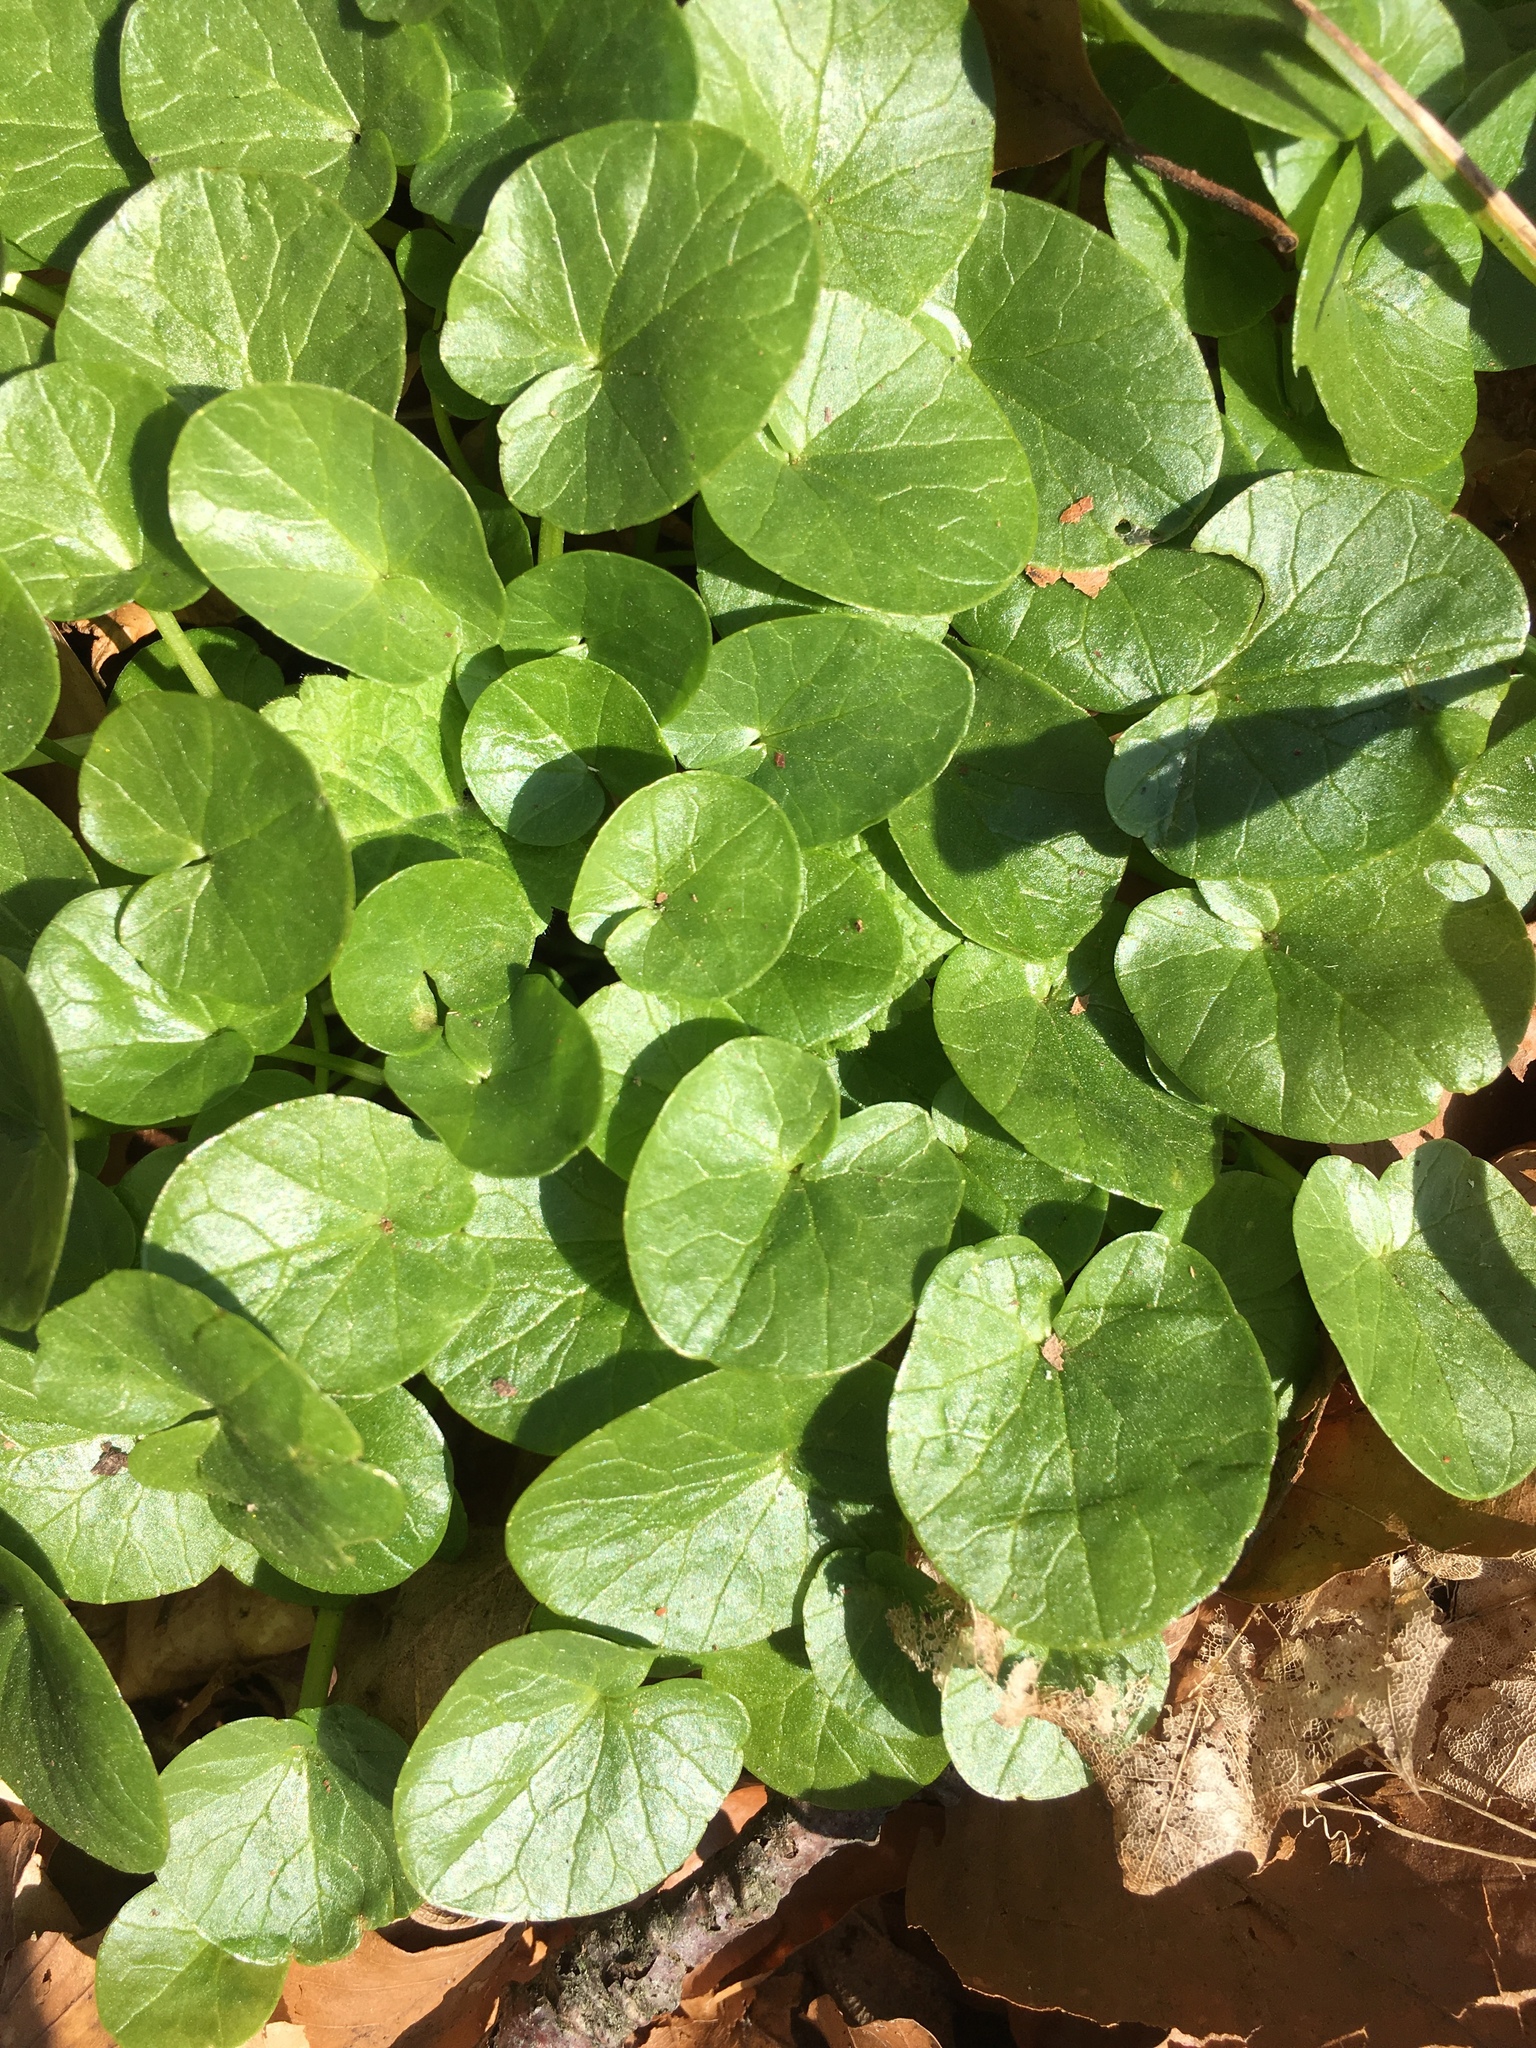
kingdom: Plantae
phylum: Tracheophyta
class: Magnoliopsida
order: Ranunculales
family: Ranunculaceae
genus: Ficaria
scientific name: Ficaria verna
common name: Lesser celandine
